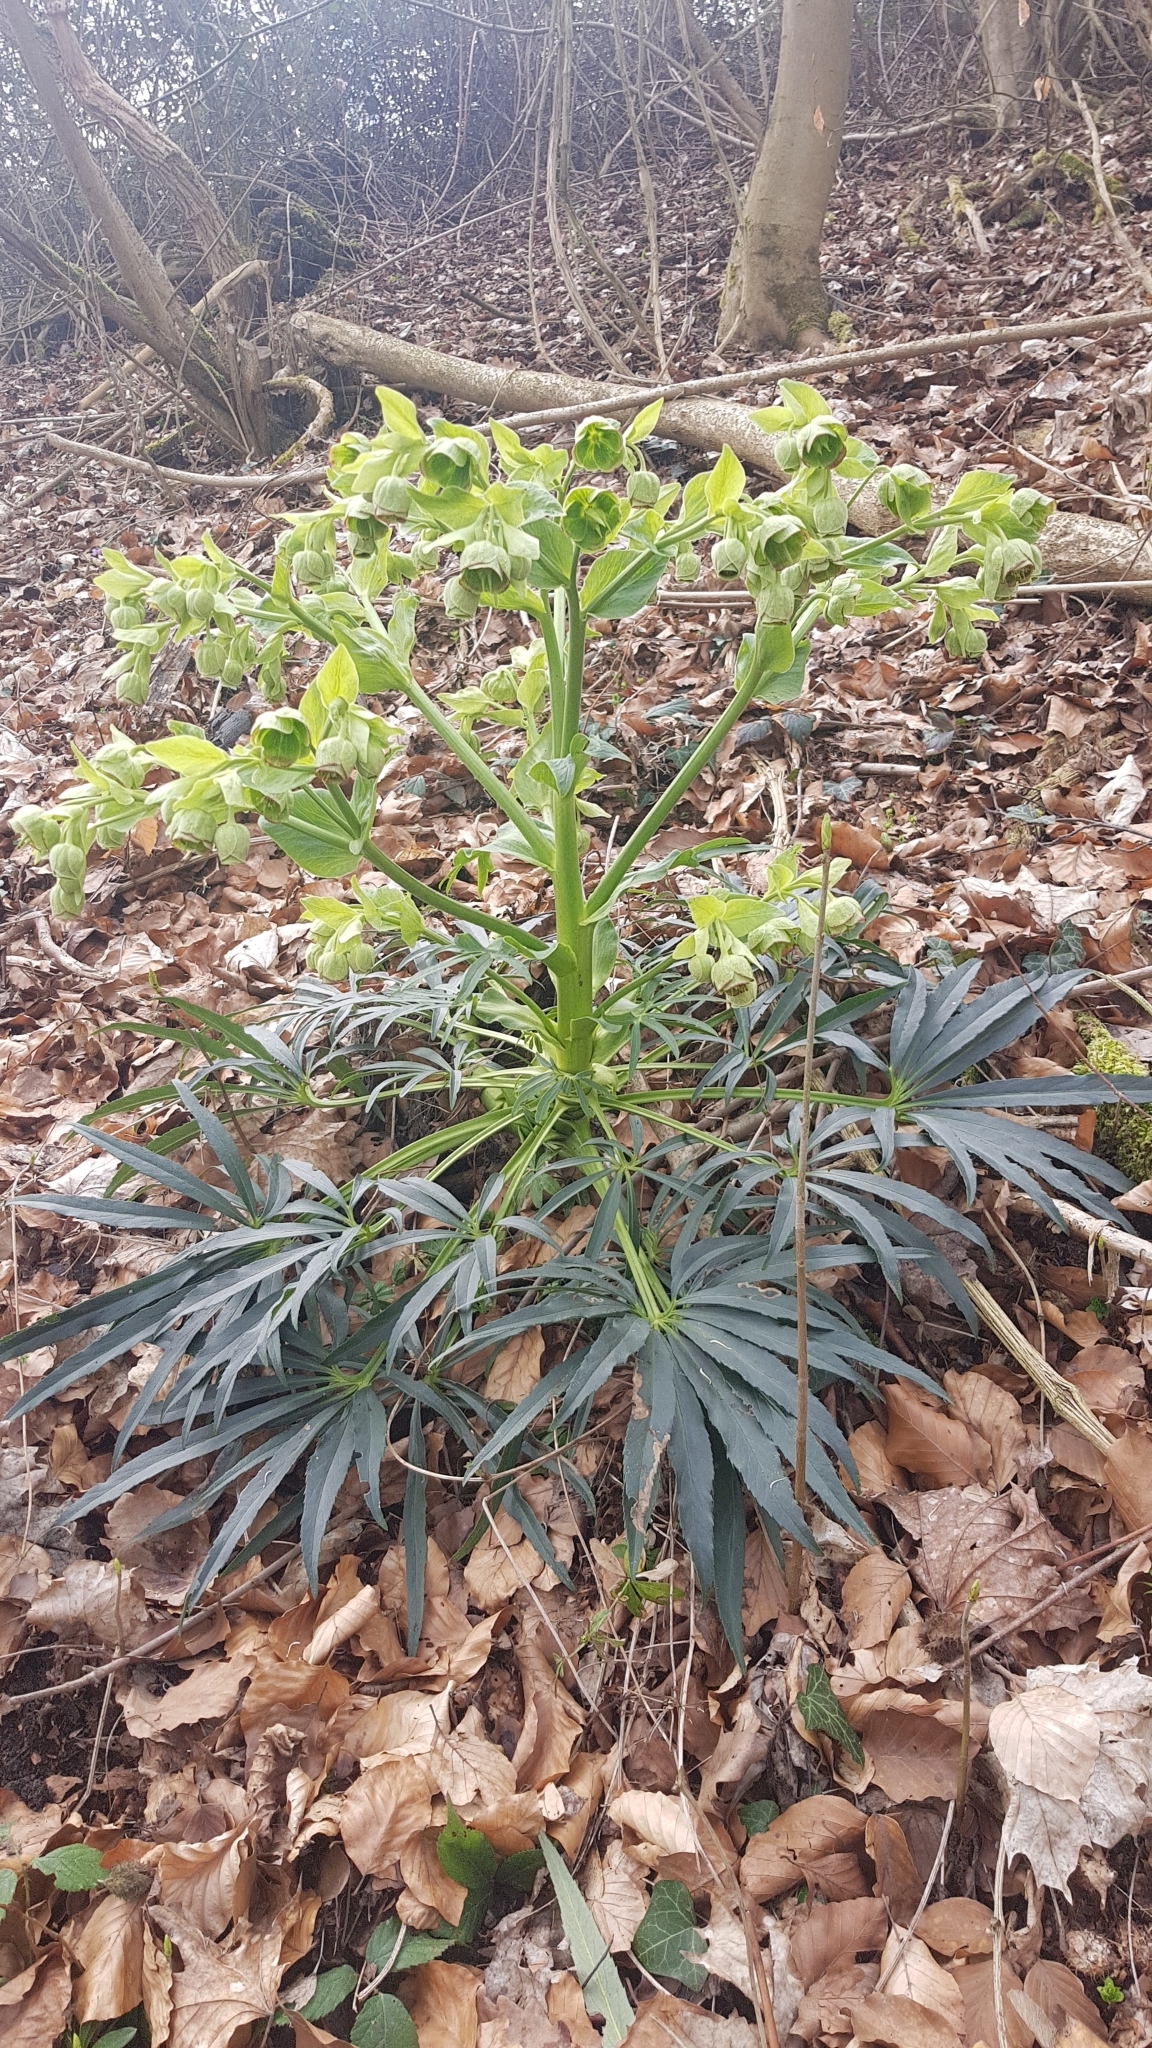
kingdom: Plantae
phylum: Tracheophyta
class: Magnoliopsida
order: Ranunculales
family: Ranunculaceae
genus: Helleborus
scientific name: Helleborus foetidus
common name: Stinking hellebore
